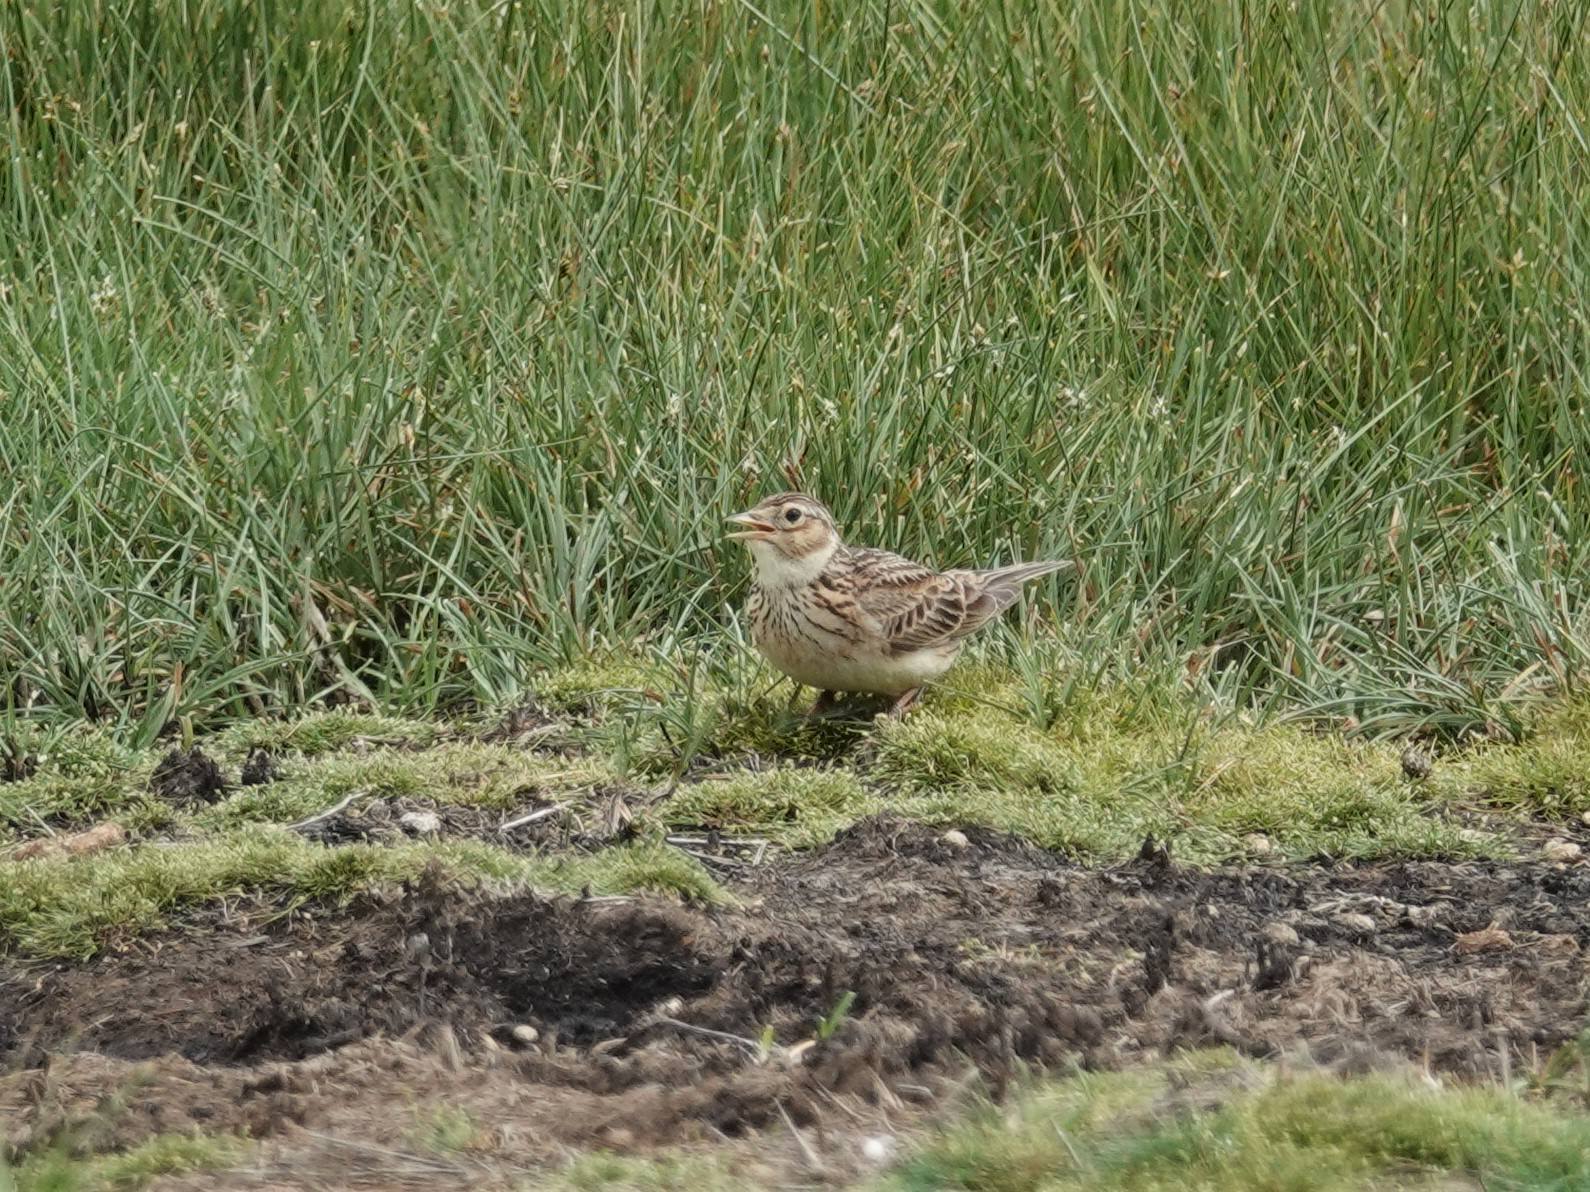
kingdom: Animalia
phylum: Chordata
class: Aves
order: Passeriformes
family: Alaudidae
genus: Alauda
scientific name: Alauda arvensis
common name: Eurasian skylark
